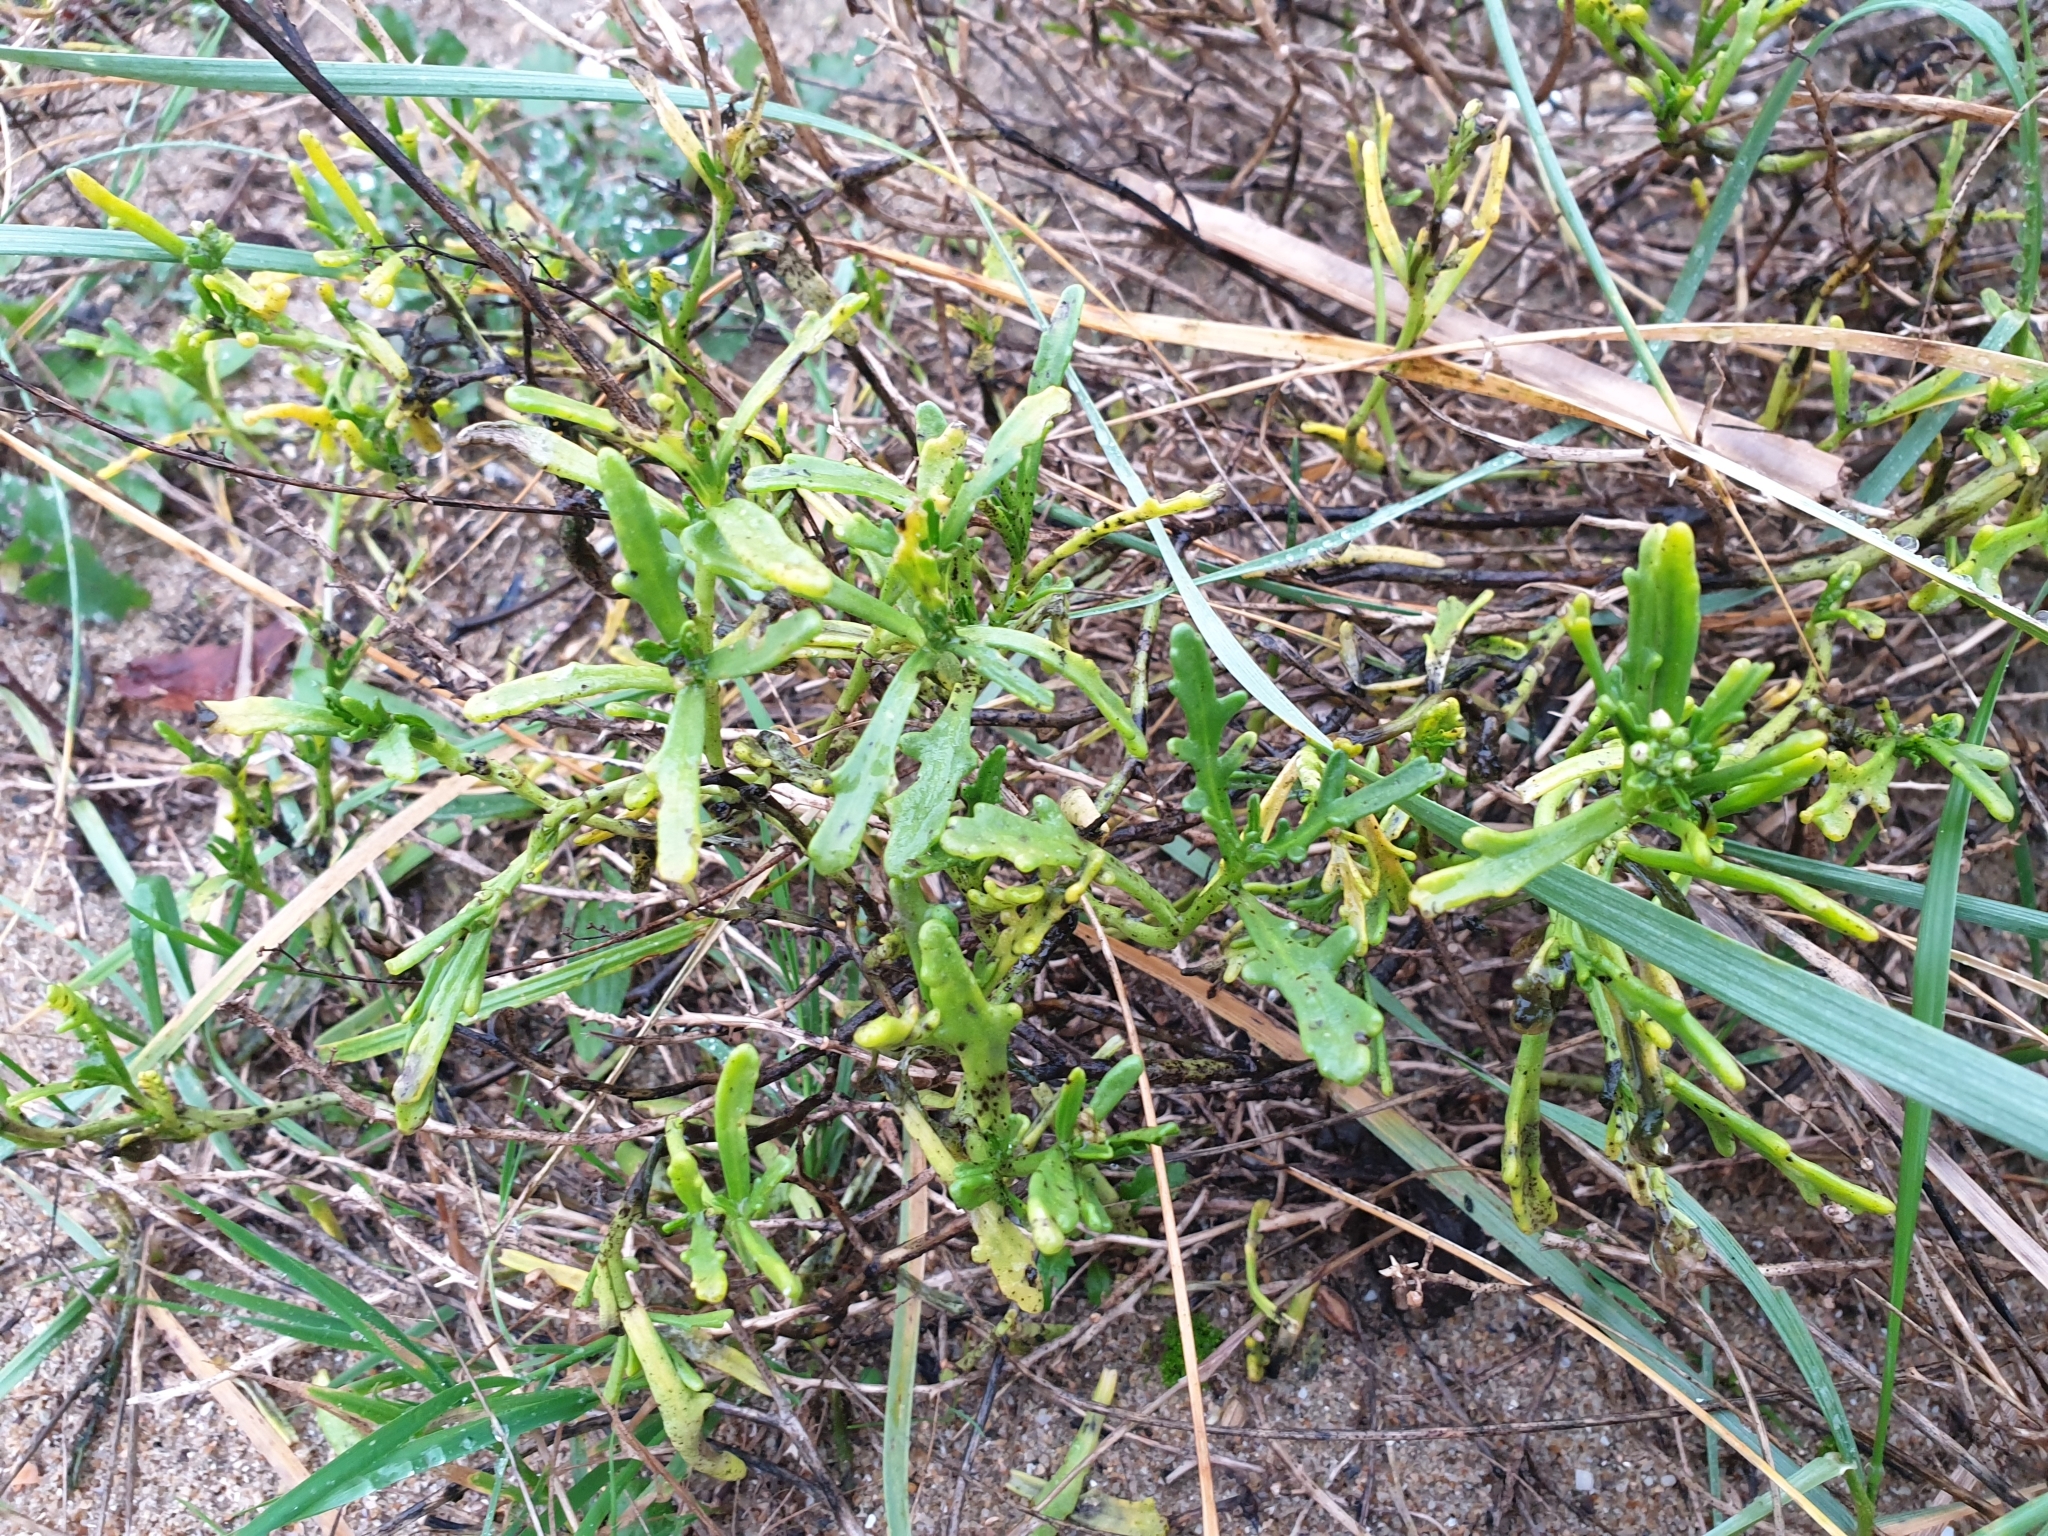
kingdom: Plantae
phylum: Tracheophyta
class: Magnoliopsida
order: Brassicales
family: Brassicaceae
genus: Cakile
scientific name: Cakile maritima
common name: Sea rocket
